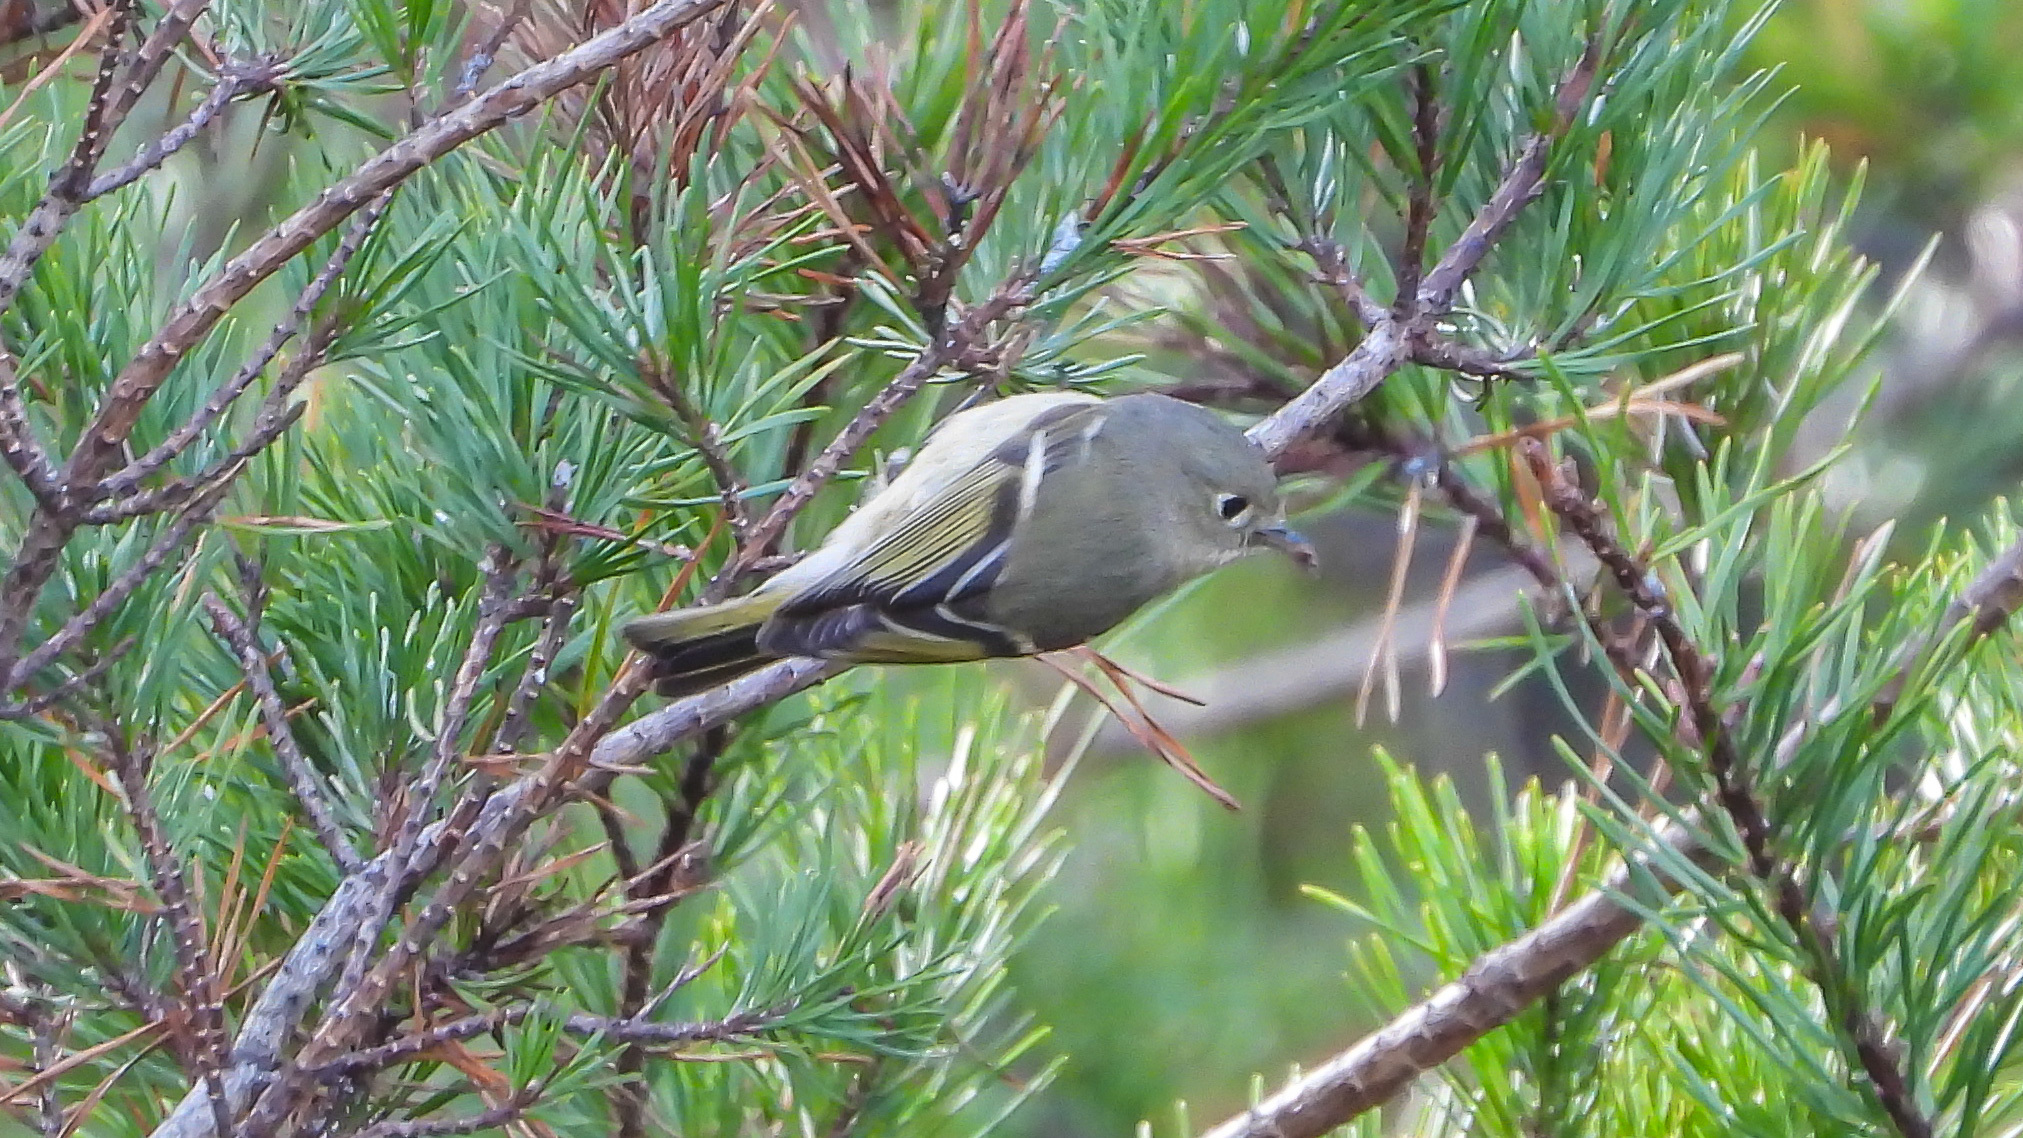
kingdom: Animalia
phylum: Chordata
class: Aves
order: Passeriformes
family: Regulidae
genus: Regulus
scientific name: Regulus calendula
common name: Ruby-crowned kinglet
